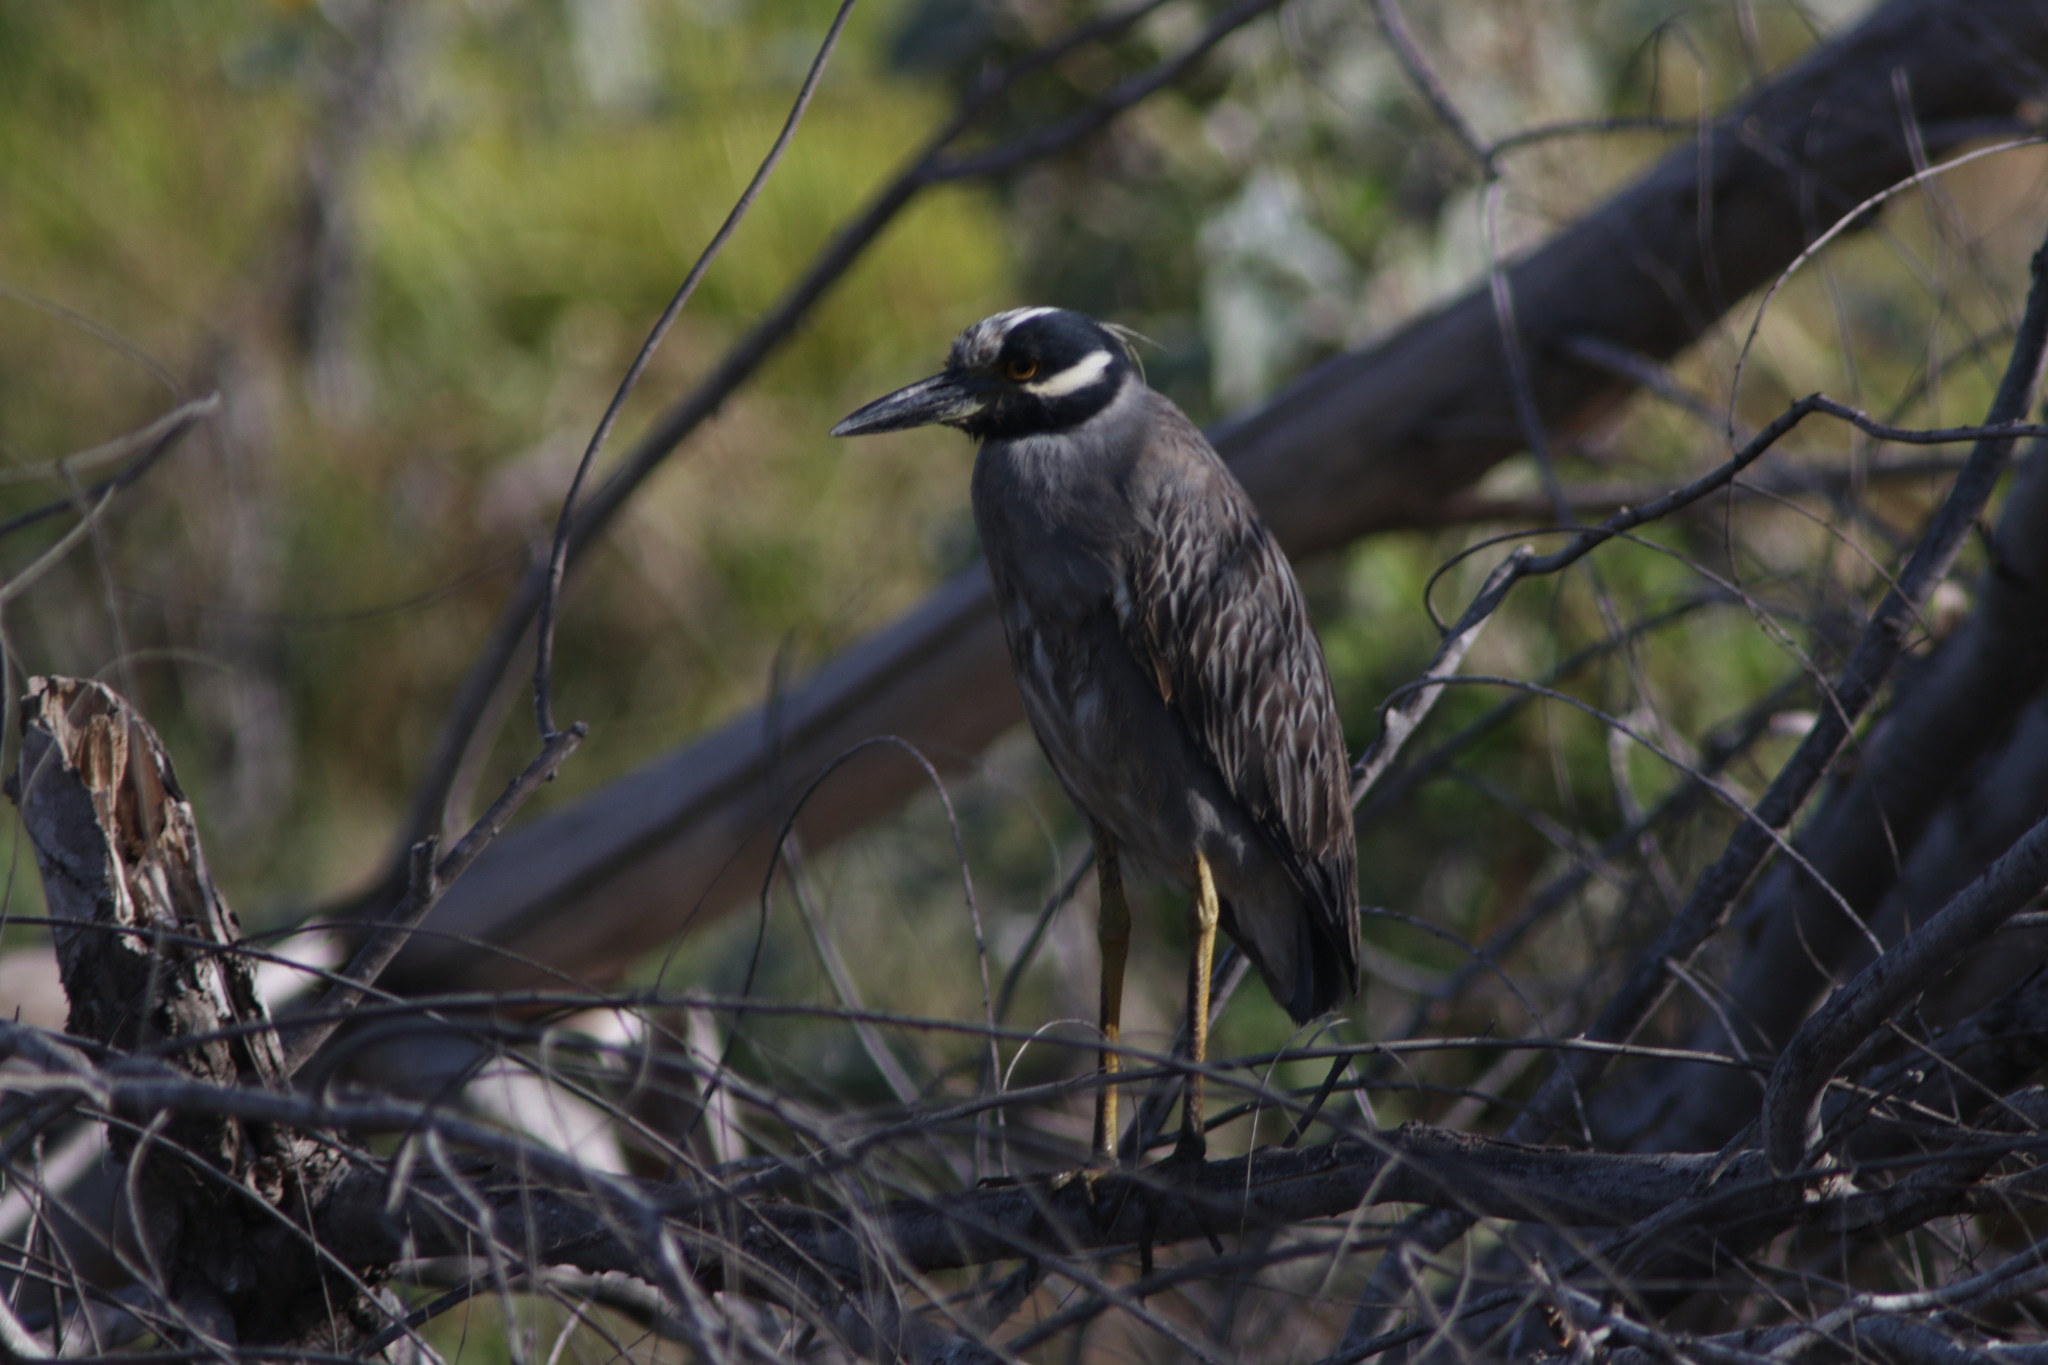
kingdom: Animalia
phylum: Chordata
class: Aves
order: Pelecaniformes
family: Ardeidae
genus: Nyctanassa
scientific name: Nyctanassa violacea
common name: Yellow-crowned night heron
